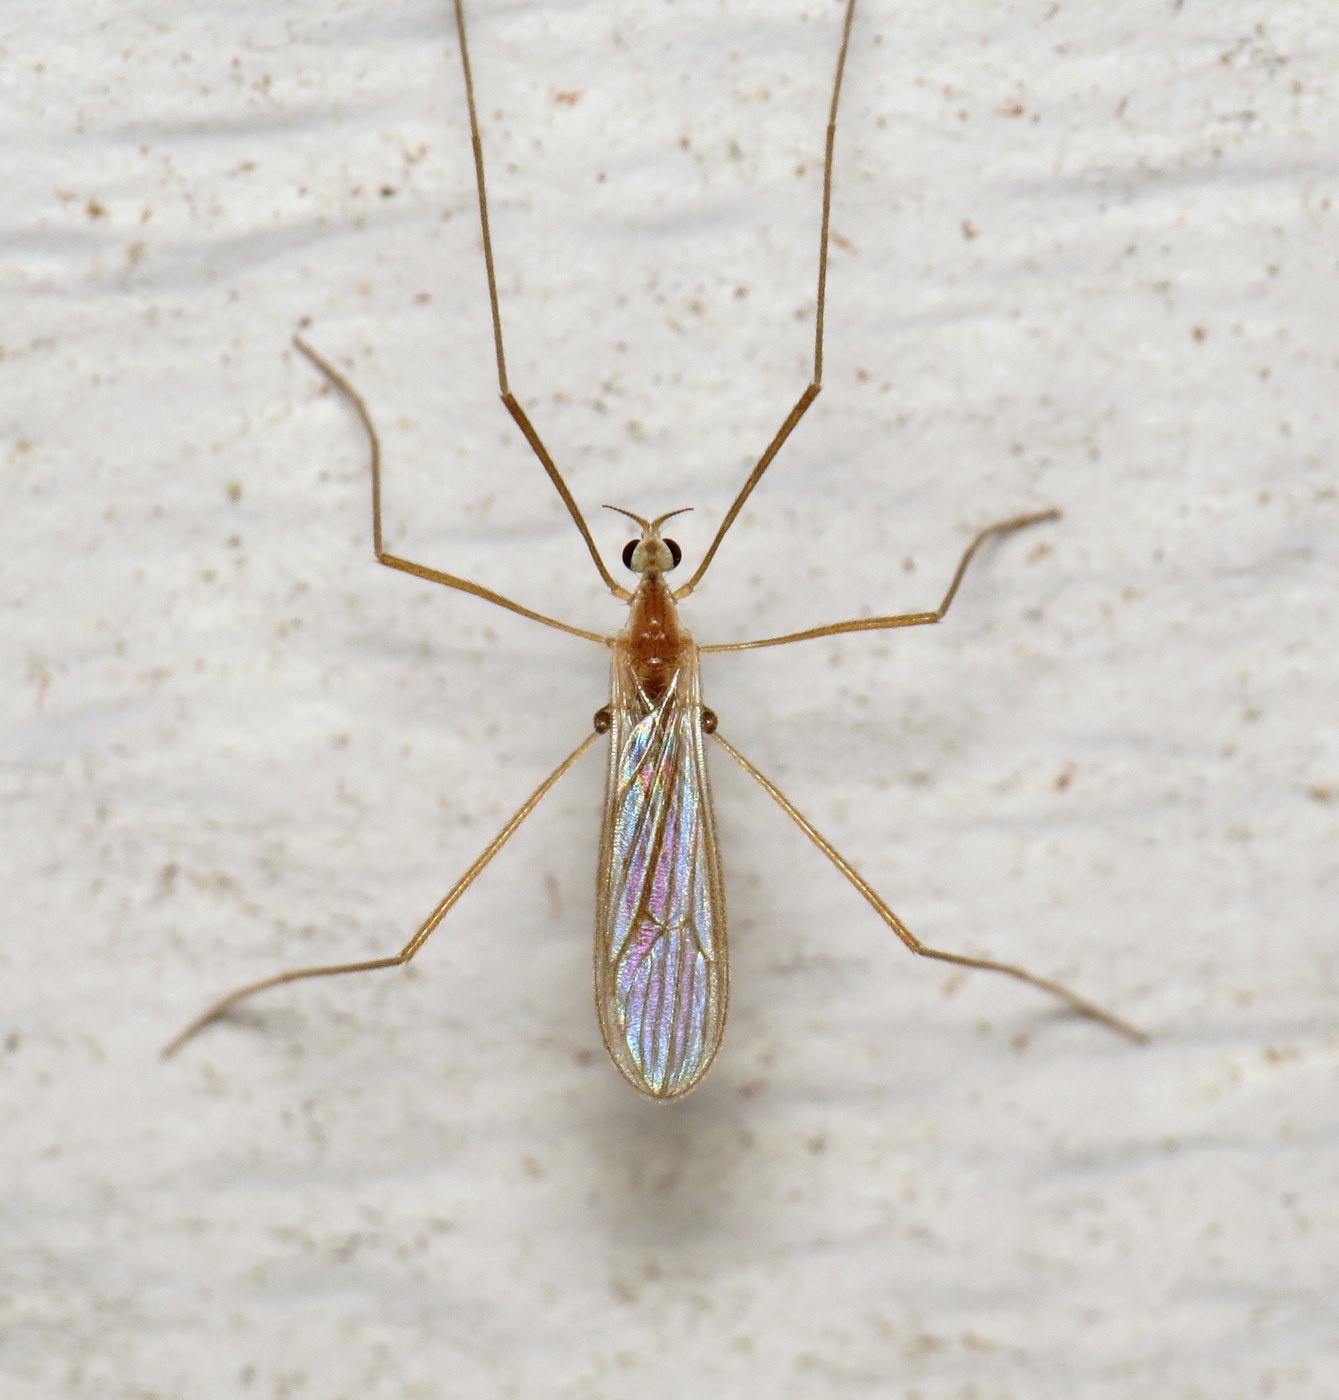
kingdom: Animalia
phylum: Arthropoda
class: Insecta
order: Diptera
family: Limoniidae
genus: Erioptera
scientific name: Erioptera septemtrionis
